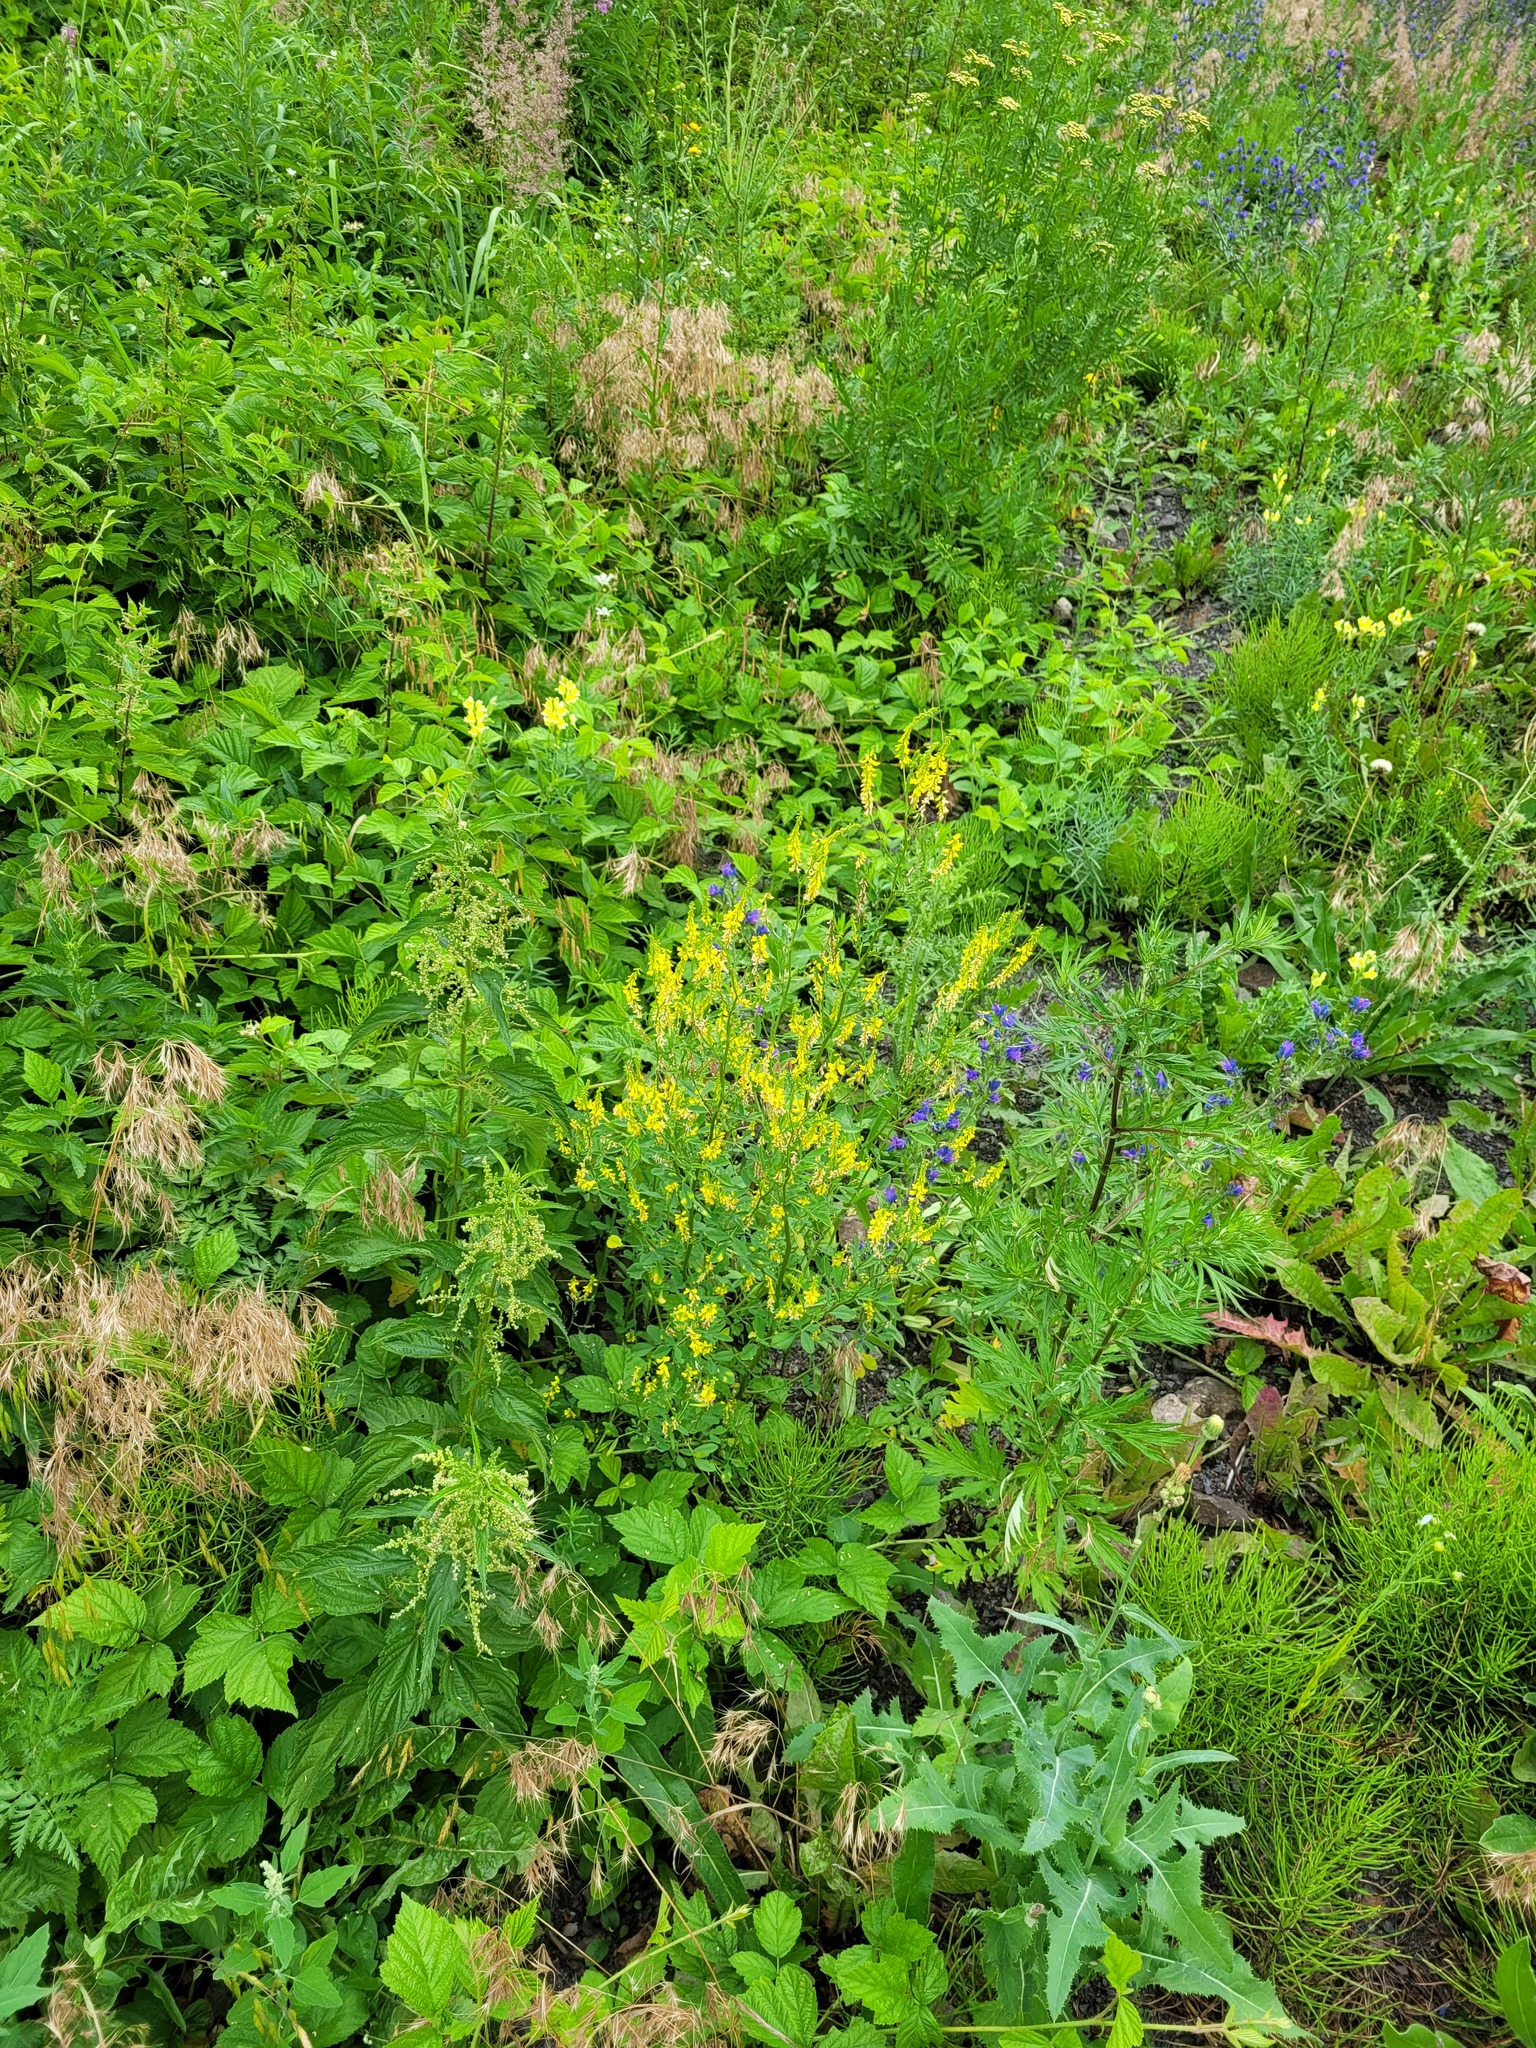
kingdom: Plantae
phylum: Tracheophyta
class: Magnoliopsida
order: Fabales
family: Fabaceae
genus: Melilotus
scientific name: Melilotus officinalis
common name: Sweetclover
